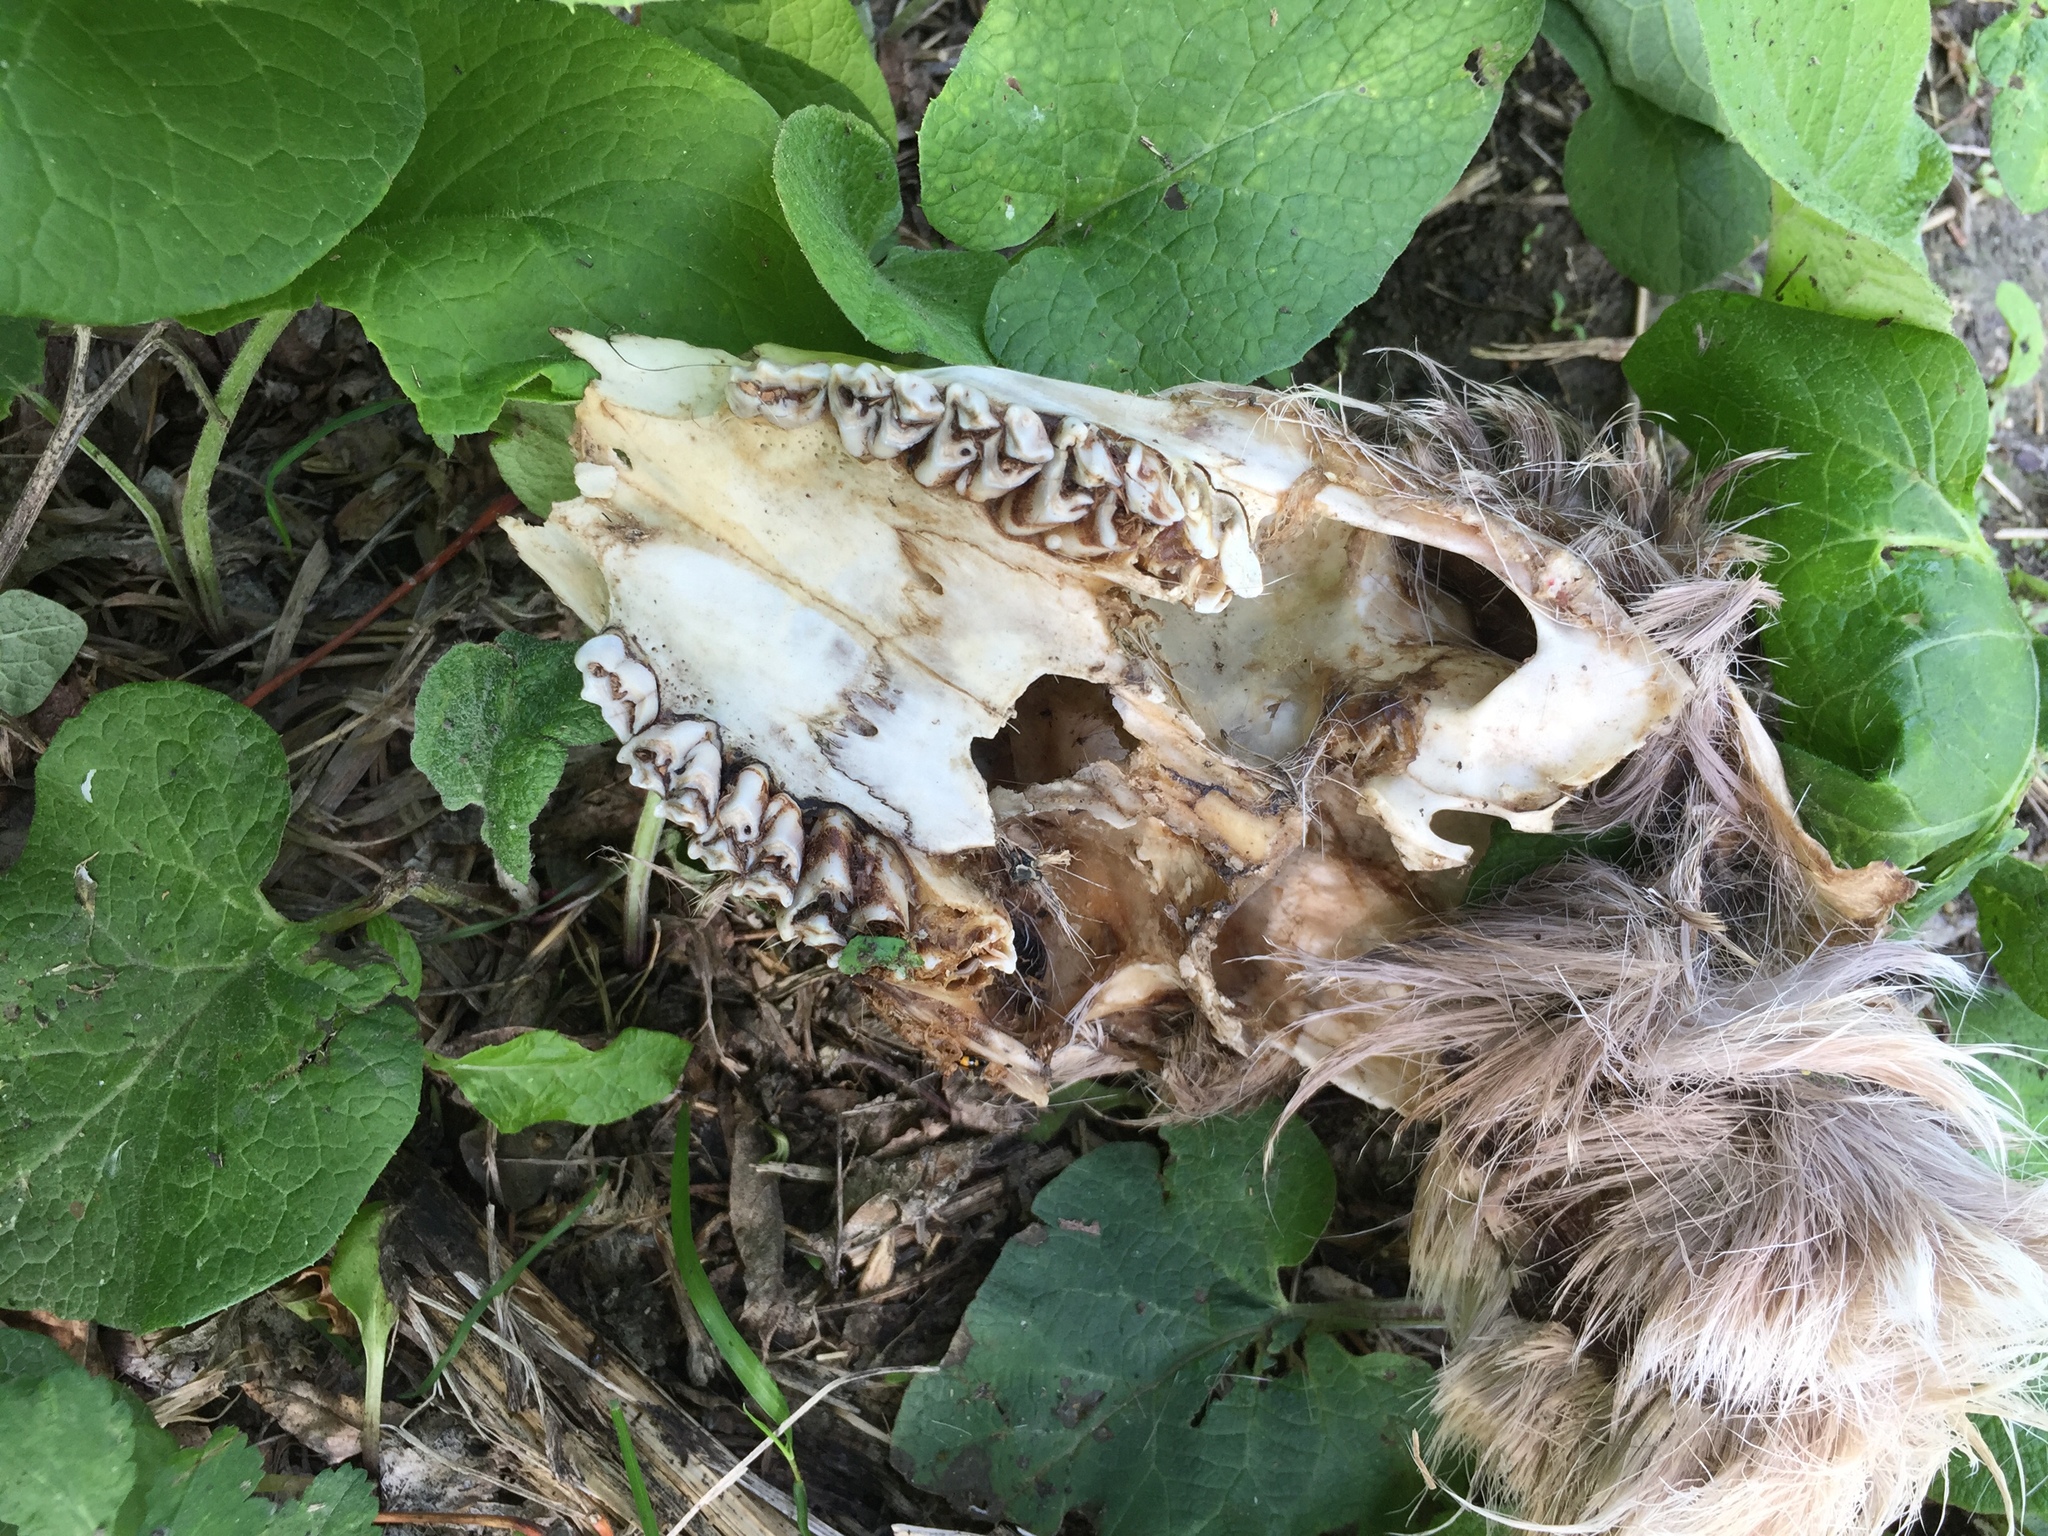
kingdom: Animalia
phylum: Chordata
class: Mammalia
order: Artiodactyla
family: Cervidae
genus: Odocoileus
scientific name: Odocoileus virginianus
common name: White-tailed deer
